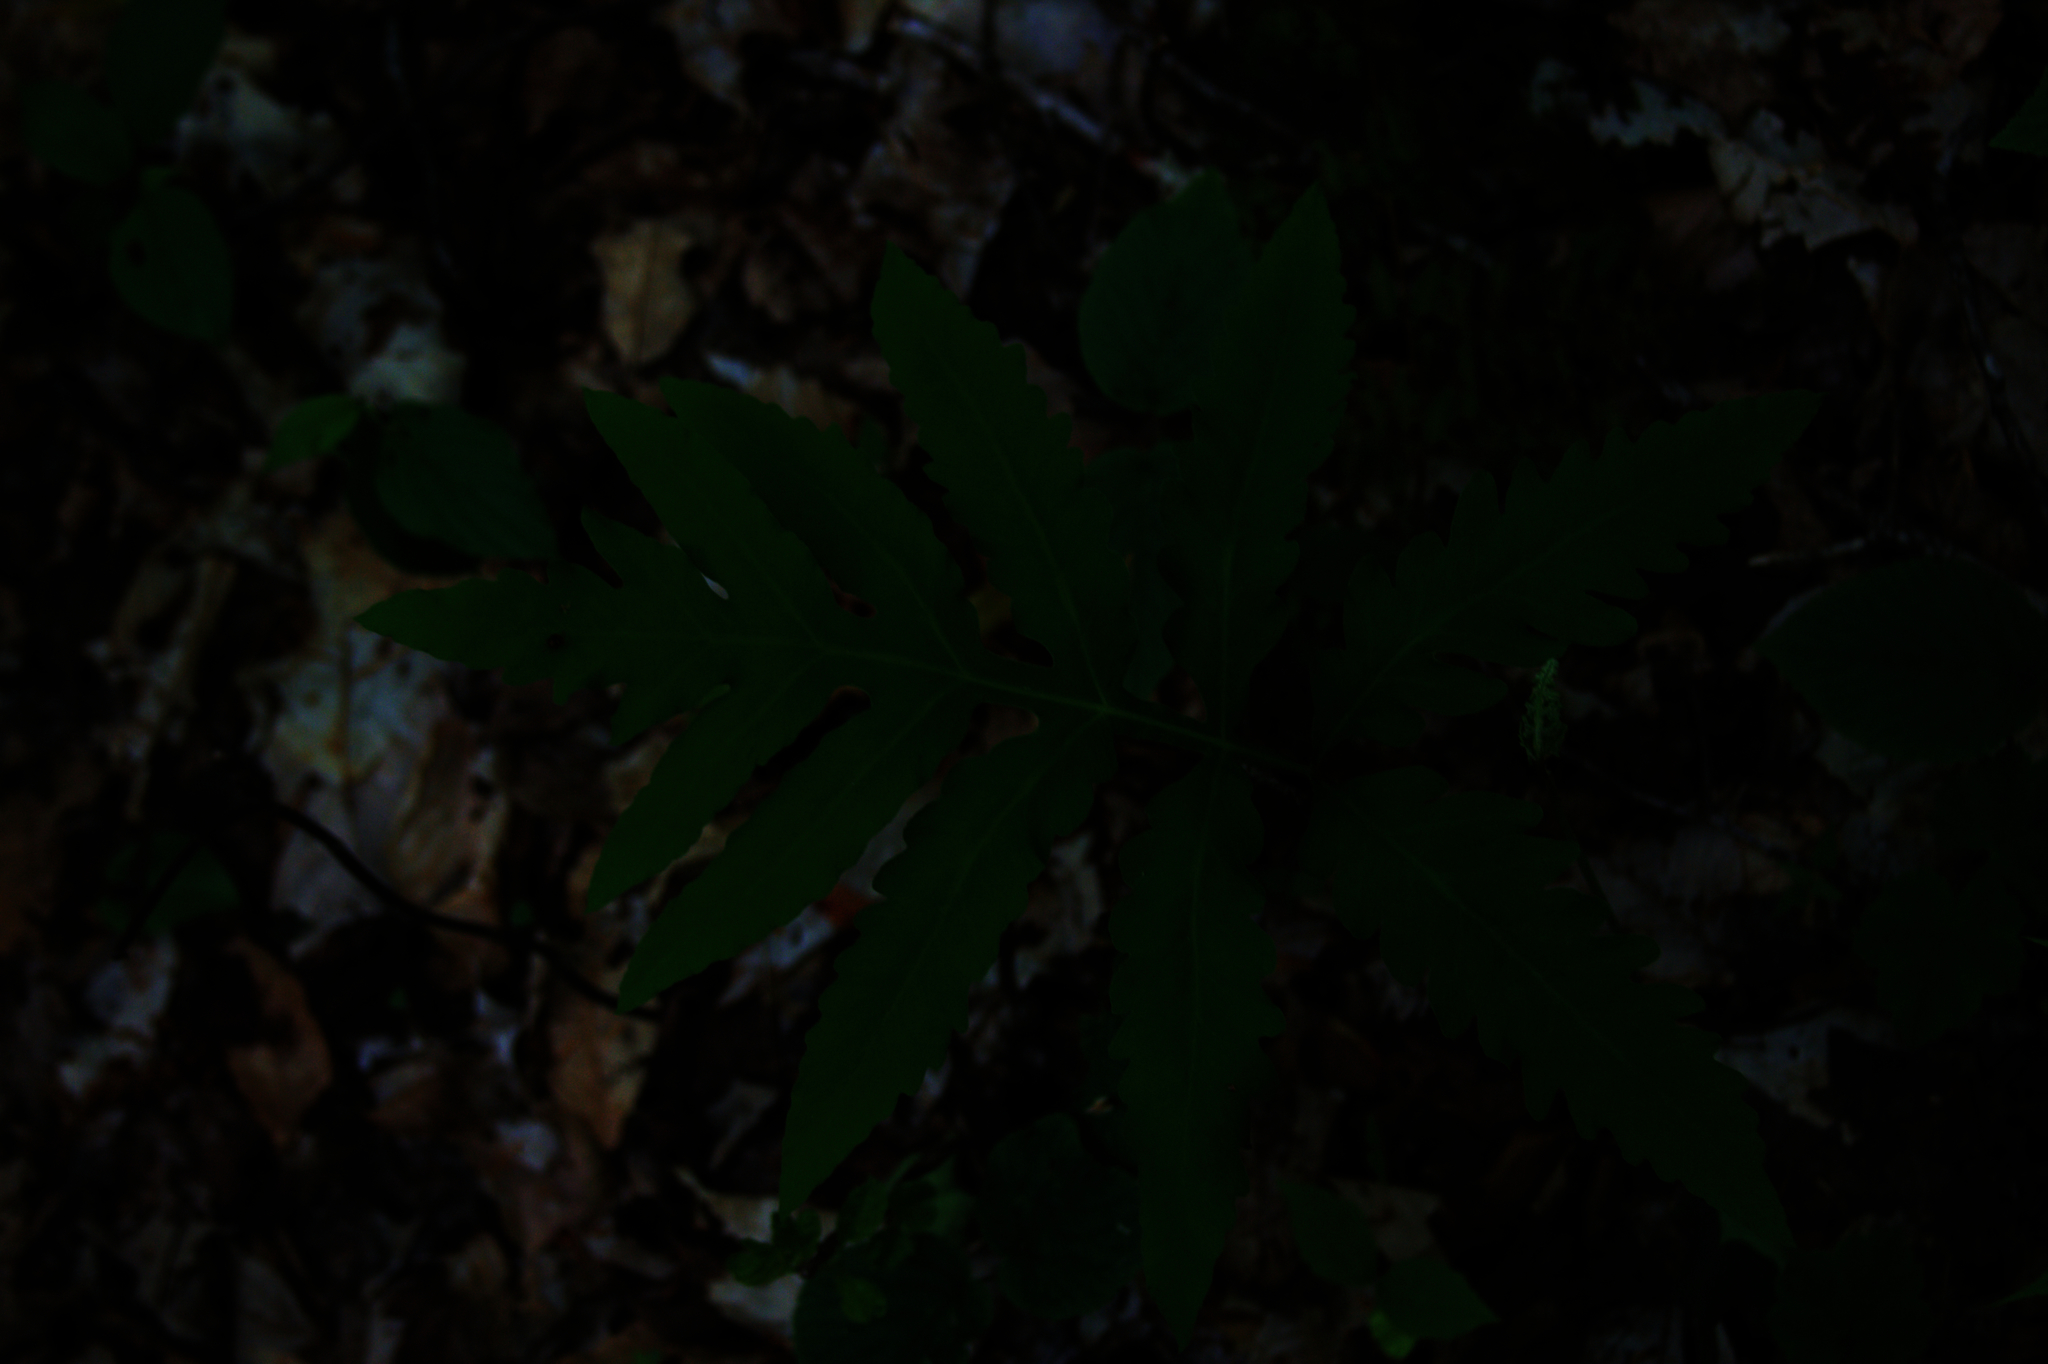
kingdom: Plantae
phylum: Tracheophyta
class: Polypodiopsida
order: Polypodiales
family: Onocleaceae
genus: Onoclea
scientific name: Onoclea sensibilis
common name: Sensitive fern
